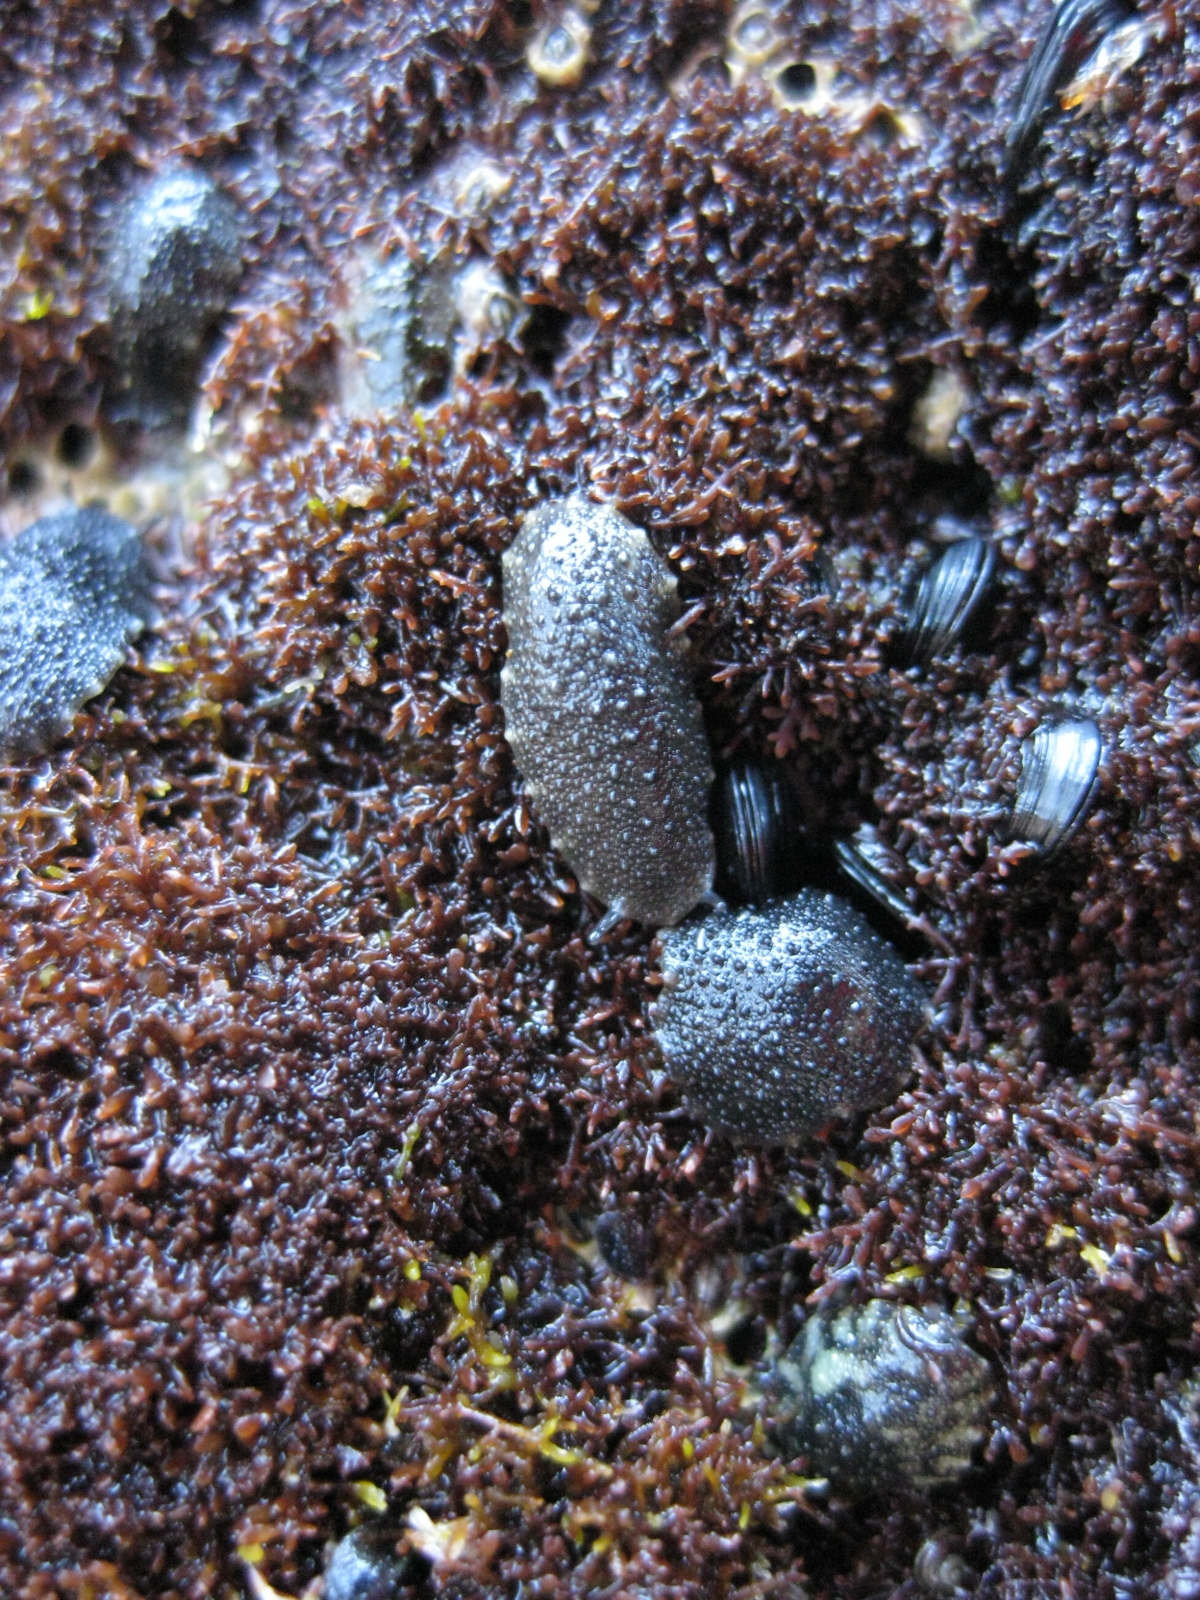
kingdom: Animalia
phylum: Mollusca
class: Gastropoda
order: Systellommatophora
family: Onchidiidae
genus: Onchidella
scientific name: Onchidella nigricans
